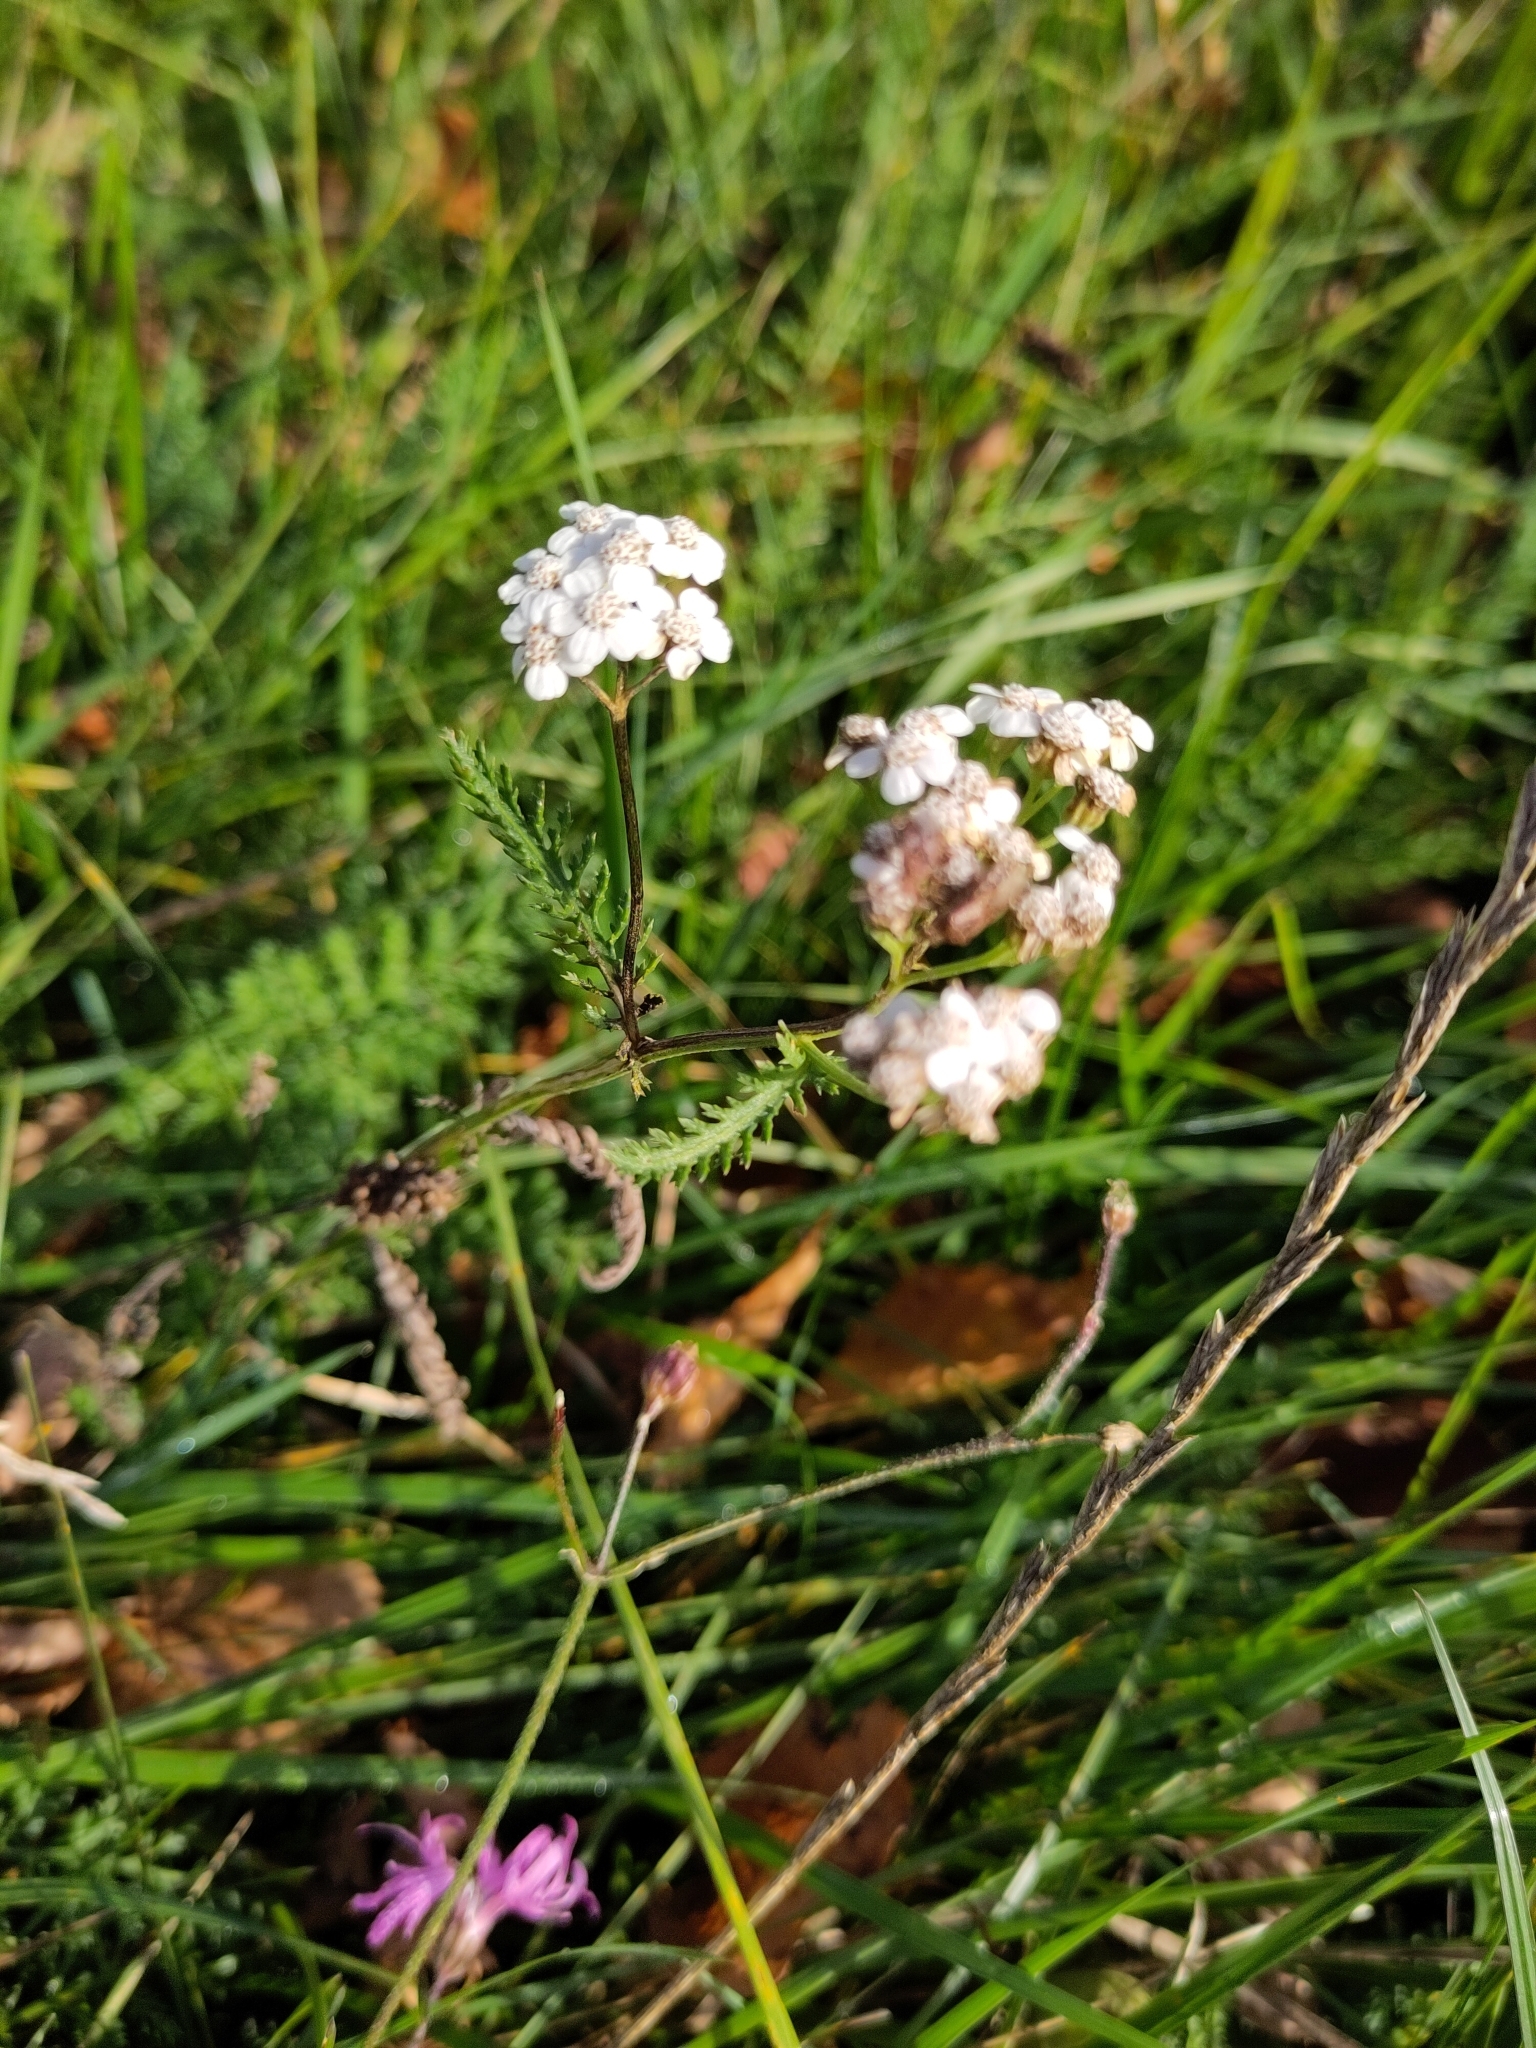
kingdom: Plantae
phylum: Tracheophyta
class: Magnoliopsida
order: Asterales
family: Asteraceae
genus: Achillea
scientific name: Achillea millefolium
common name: Yarrow
